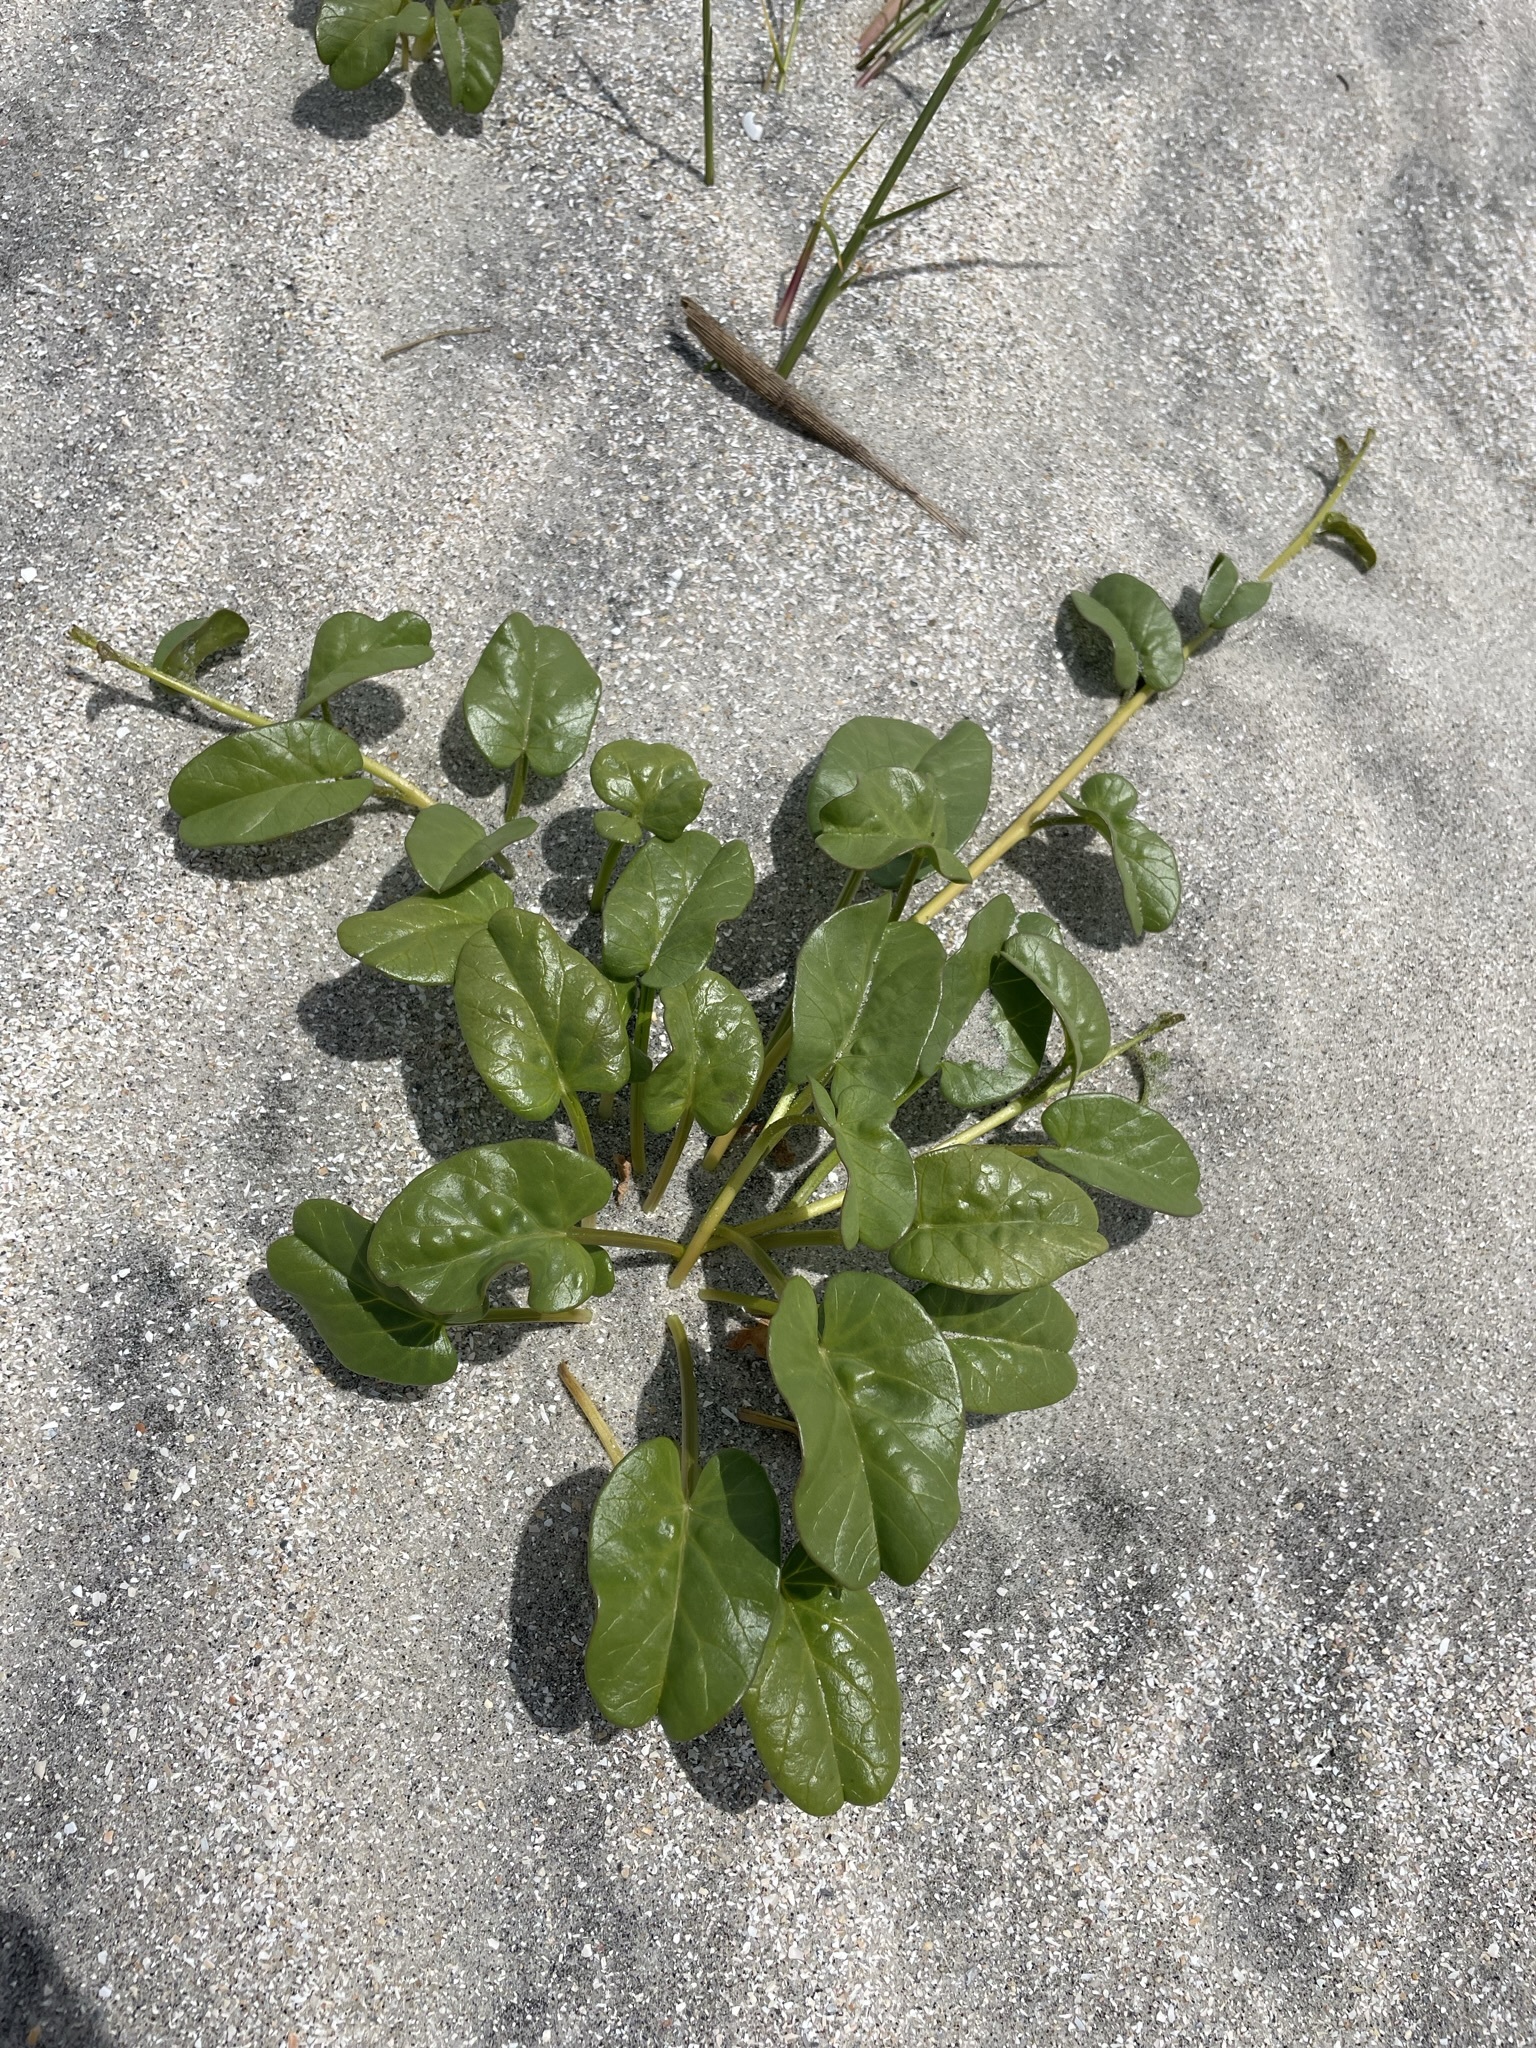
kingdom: Plantae
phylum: Tracheophyta
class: Magnoliopsida
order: Solanales
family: Convolvulaceae
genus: Ipomoea
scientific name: Ipomoea imperati
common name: Fiddle-leaf morning-glory
